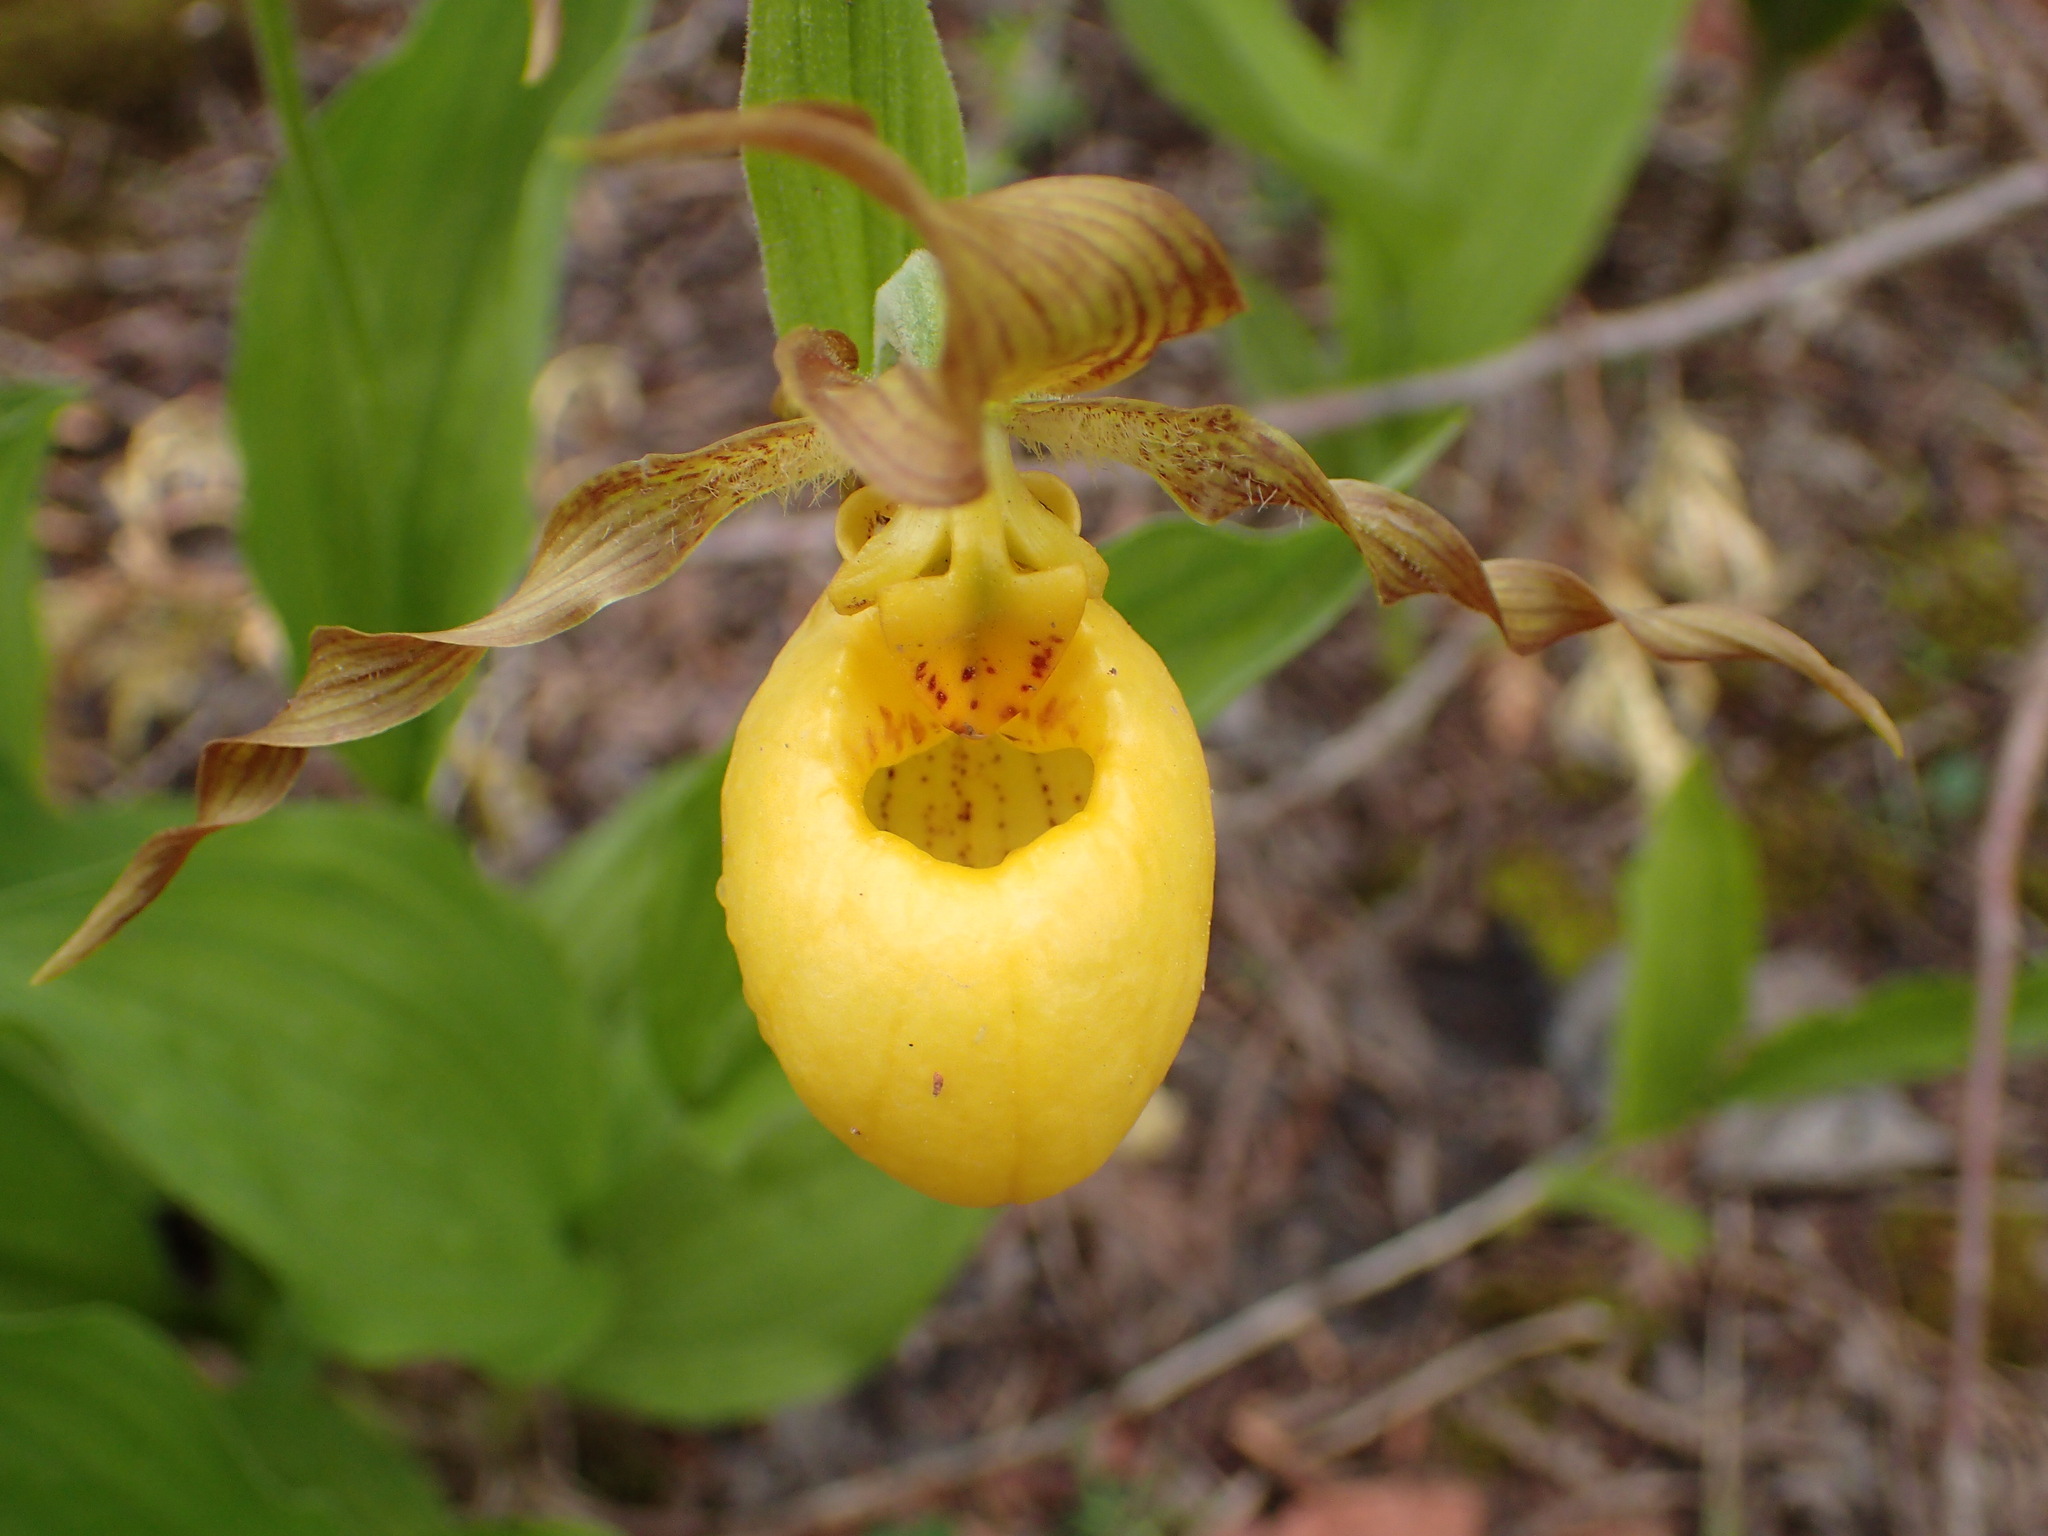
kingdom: Plantae
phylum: Tracheophyta
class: Liliopsida
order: Asparagales
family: Orchidaceae
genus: Cypripedium
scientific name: Cypripedium parviflorum
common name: American yellow lady's-slipper
